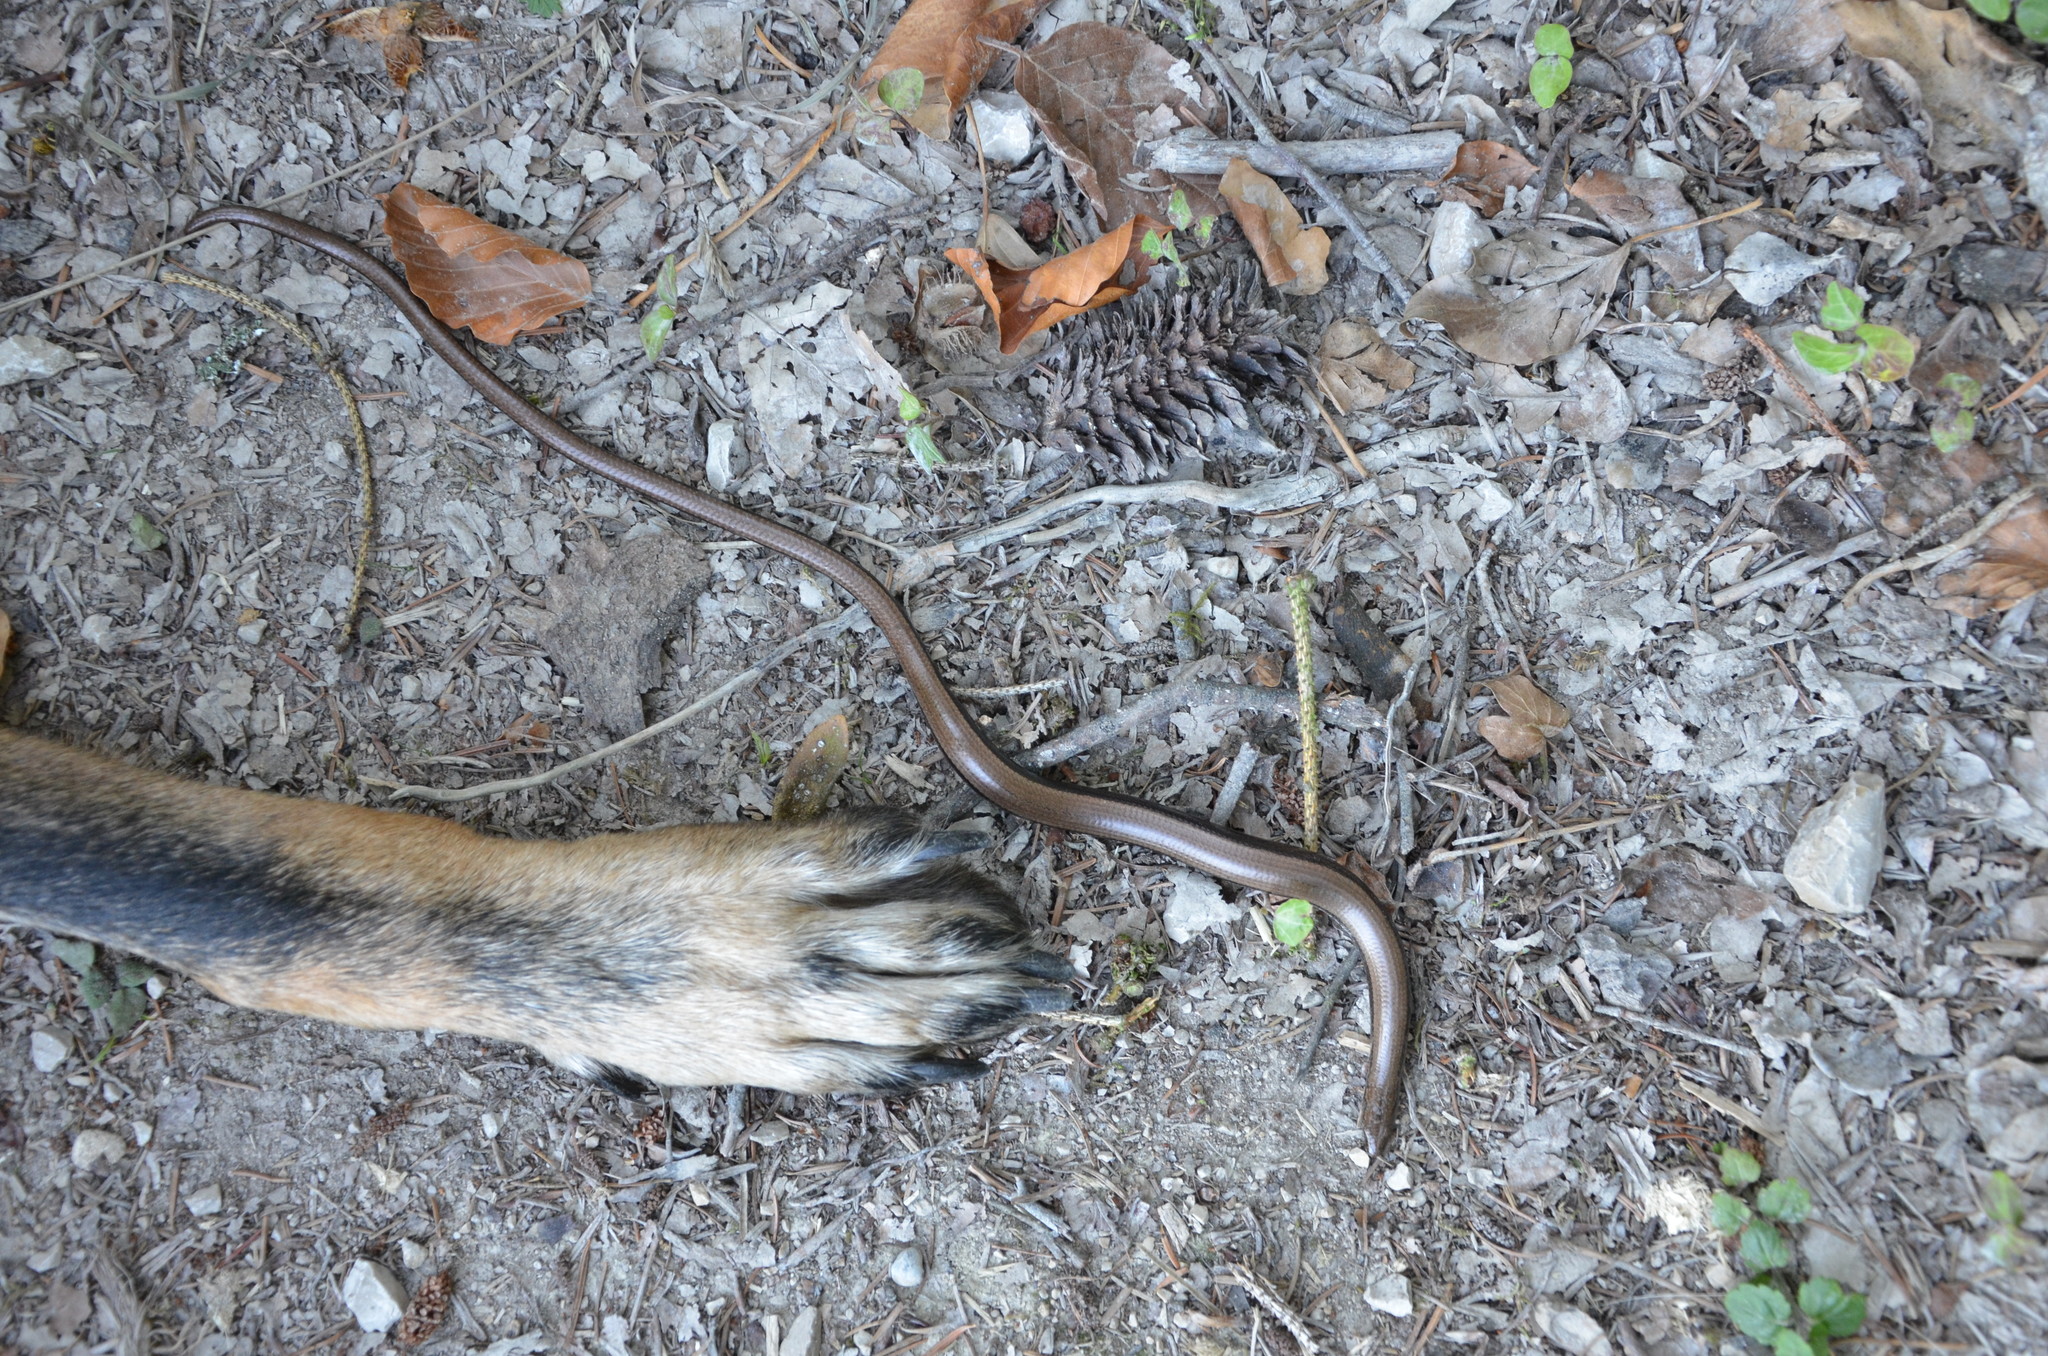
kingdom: Animalia
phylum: Chordata
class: Squamata
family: Anguidae
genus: Anguis
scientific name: Anguis fragilis
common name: Slow worm
